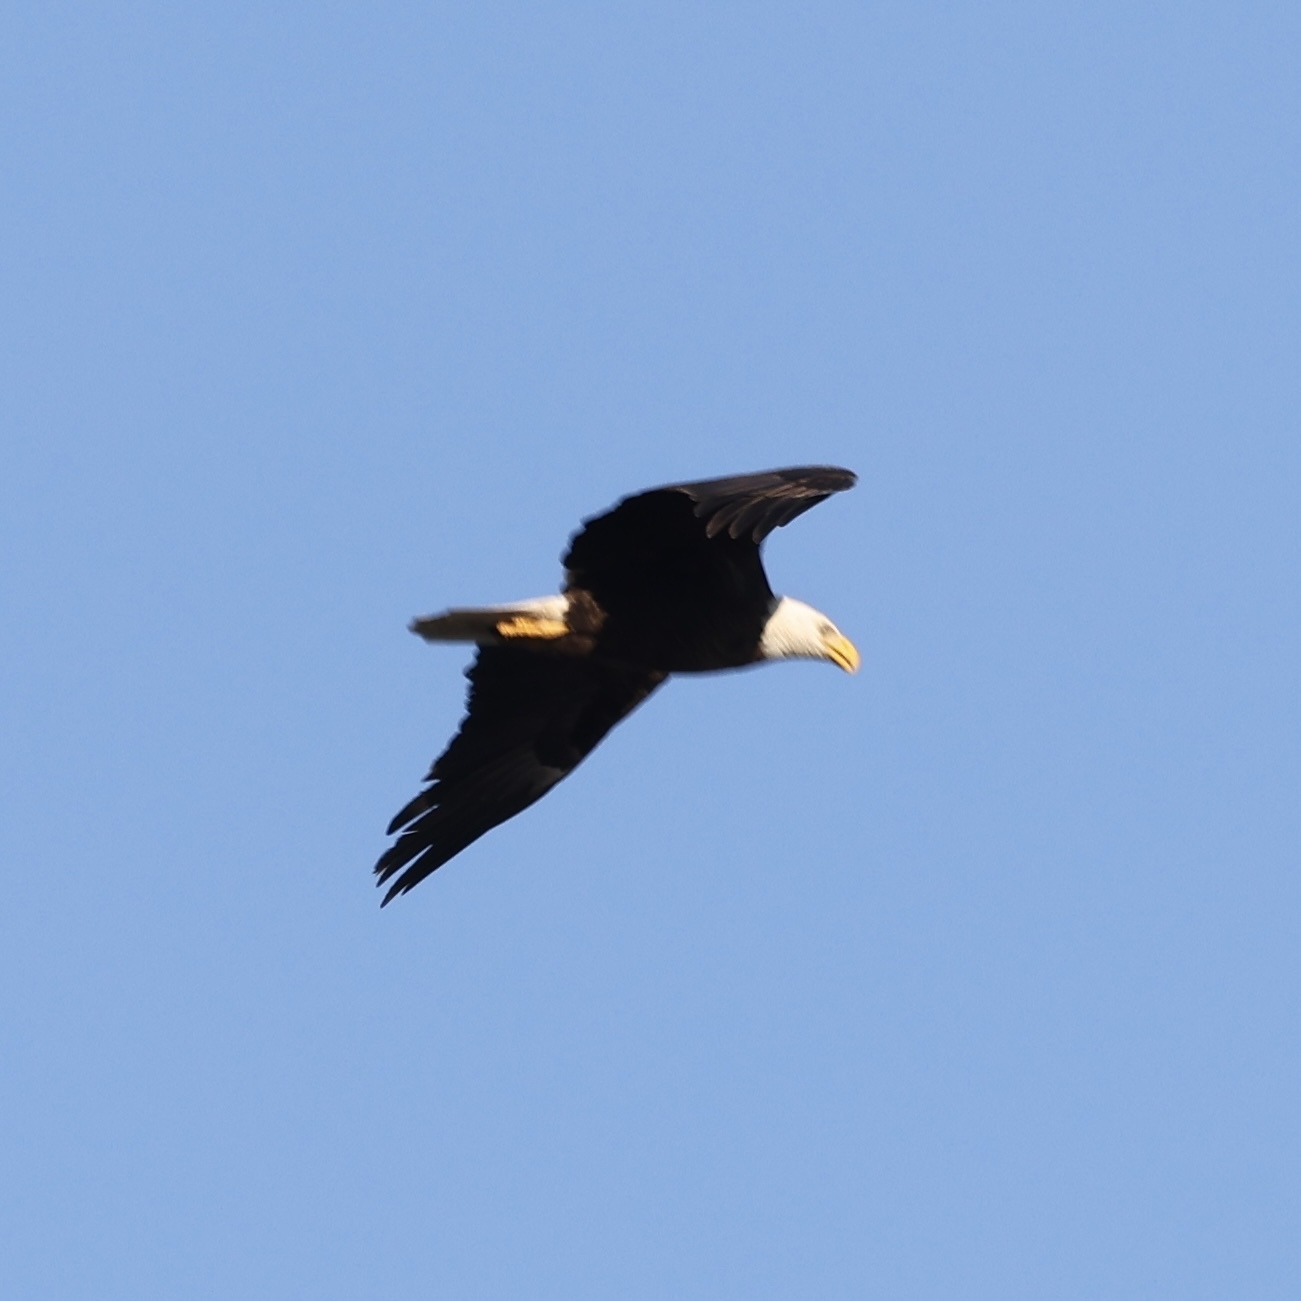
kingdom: Animalia
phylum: Chordata
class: Aves
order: Accipitriformes
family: Accipitridae
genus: Haliaeetus
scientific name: Haliaeetus leucocephalus
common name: Bald eagle
